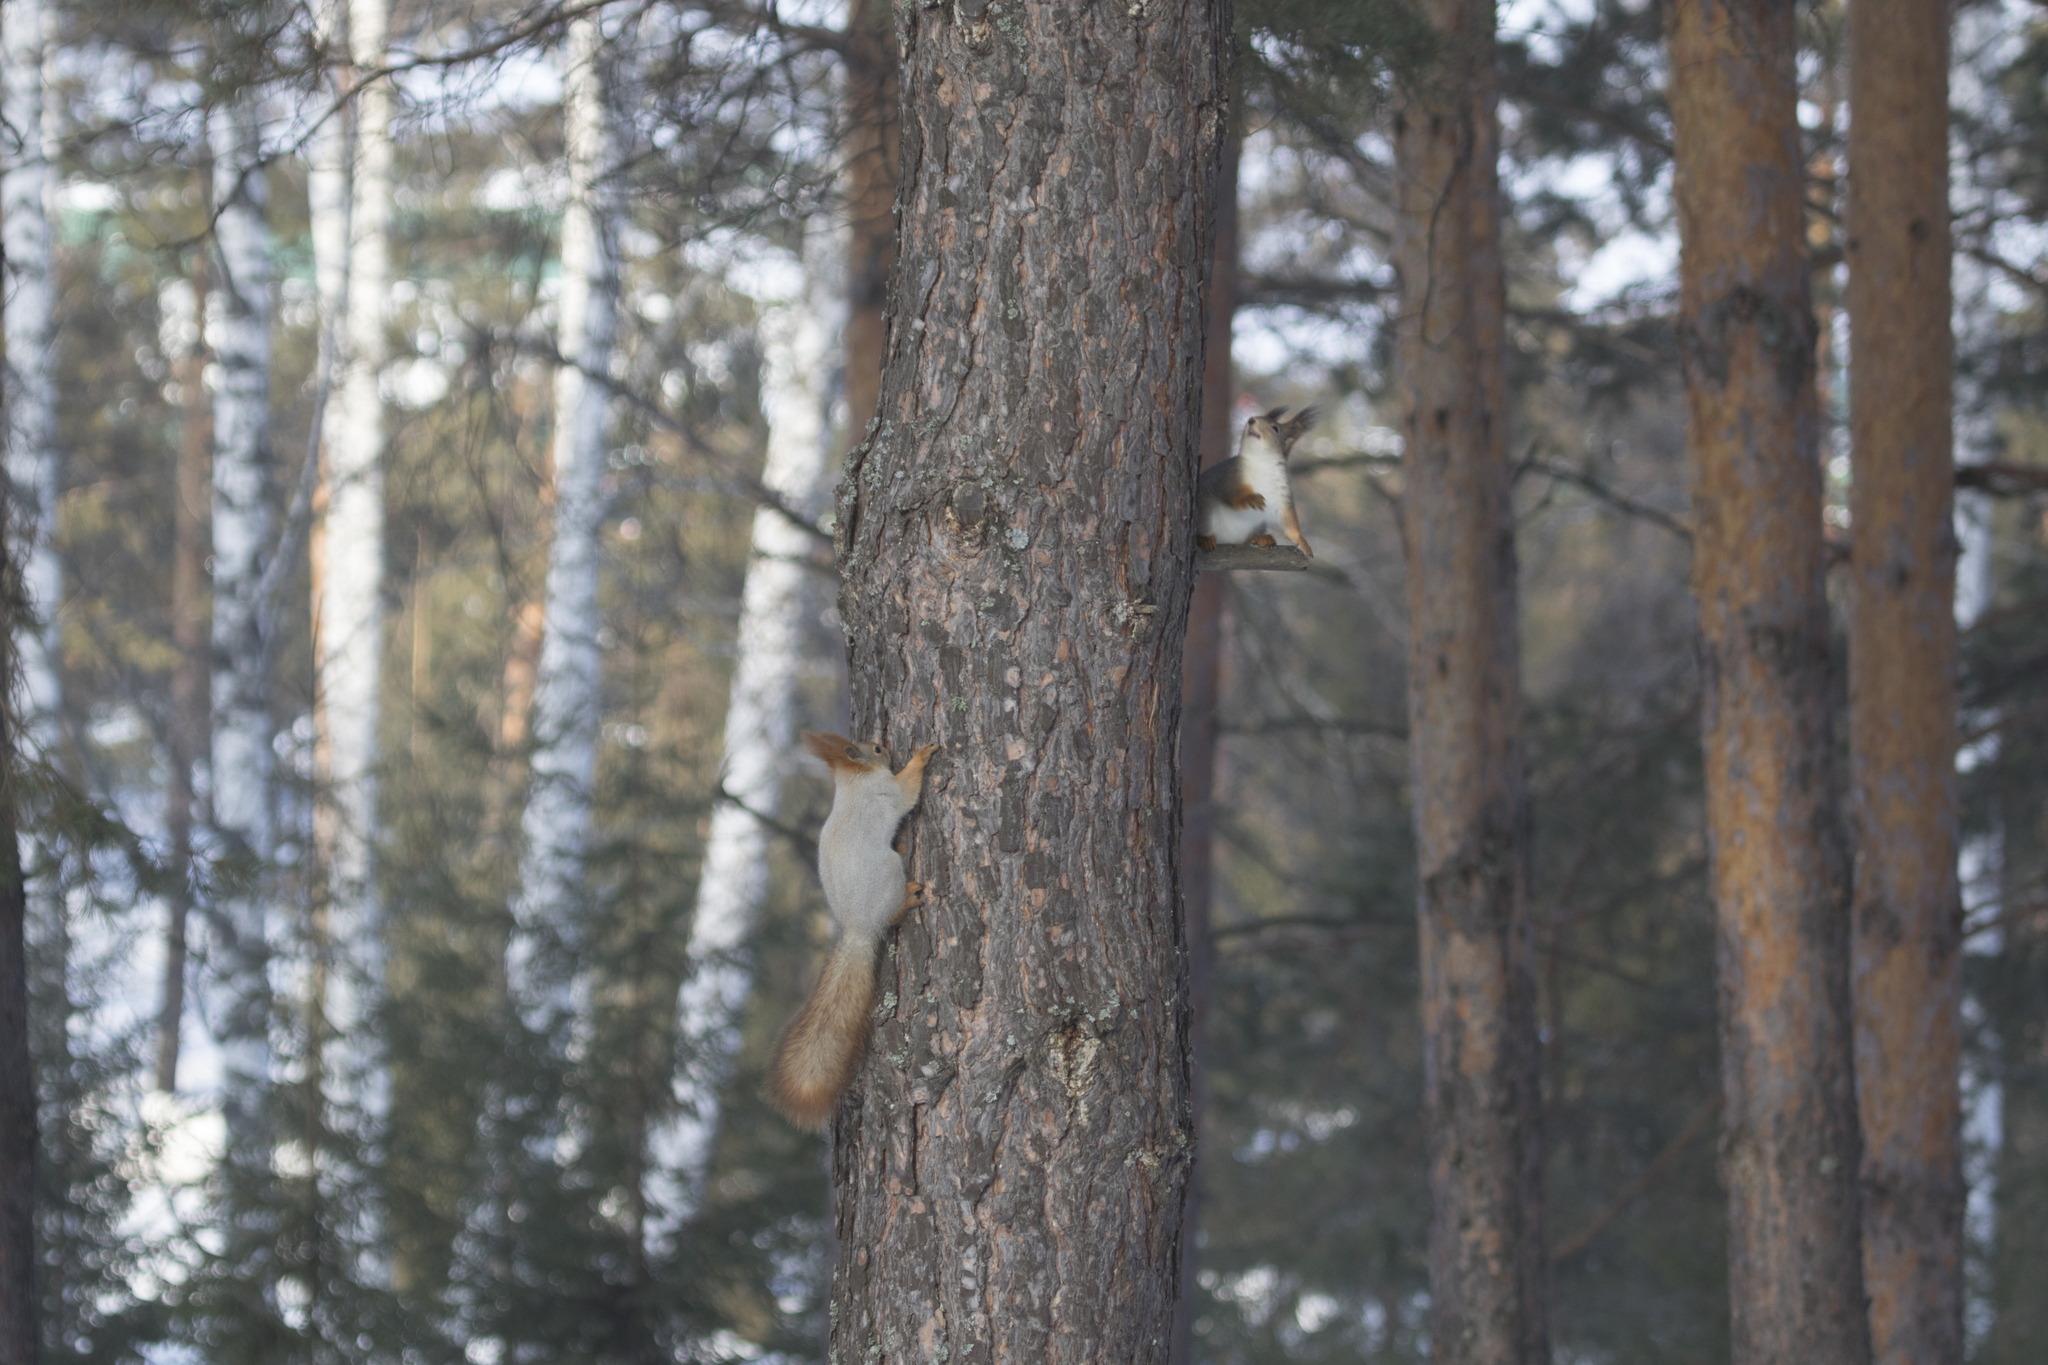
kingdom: Animalia
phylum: Chordata
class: Mammalia
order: Rodentia
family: Sciuridae
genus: Sciurus
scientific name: Sciurus vulgaris
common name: Eurasian red squirrel
